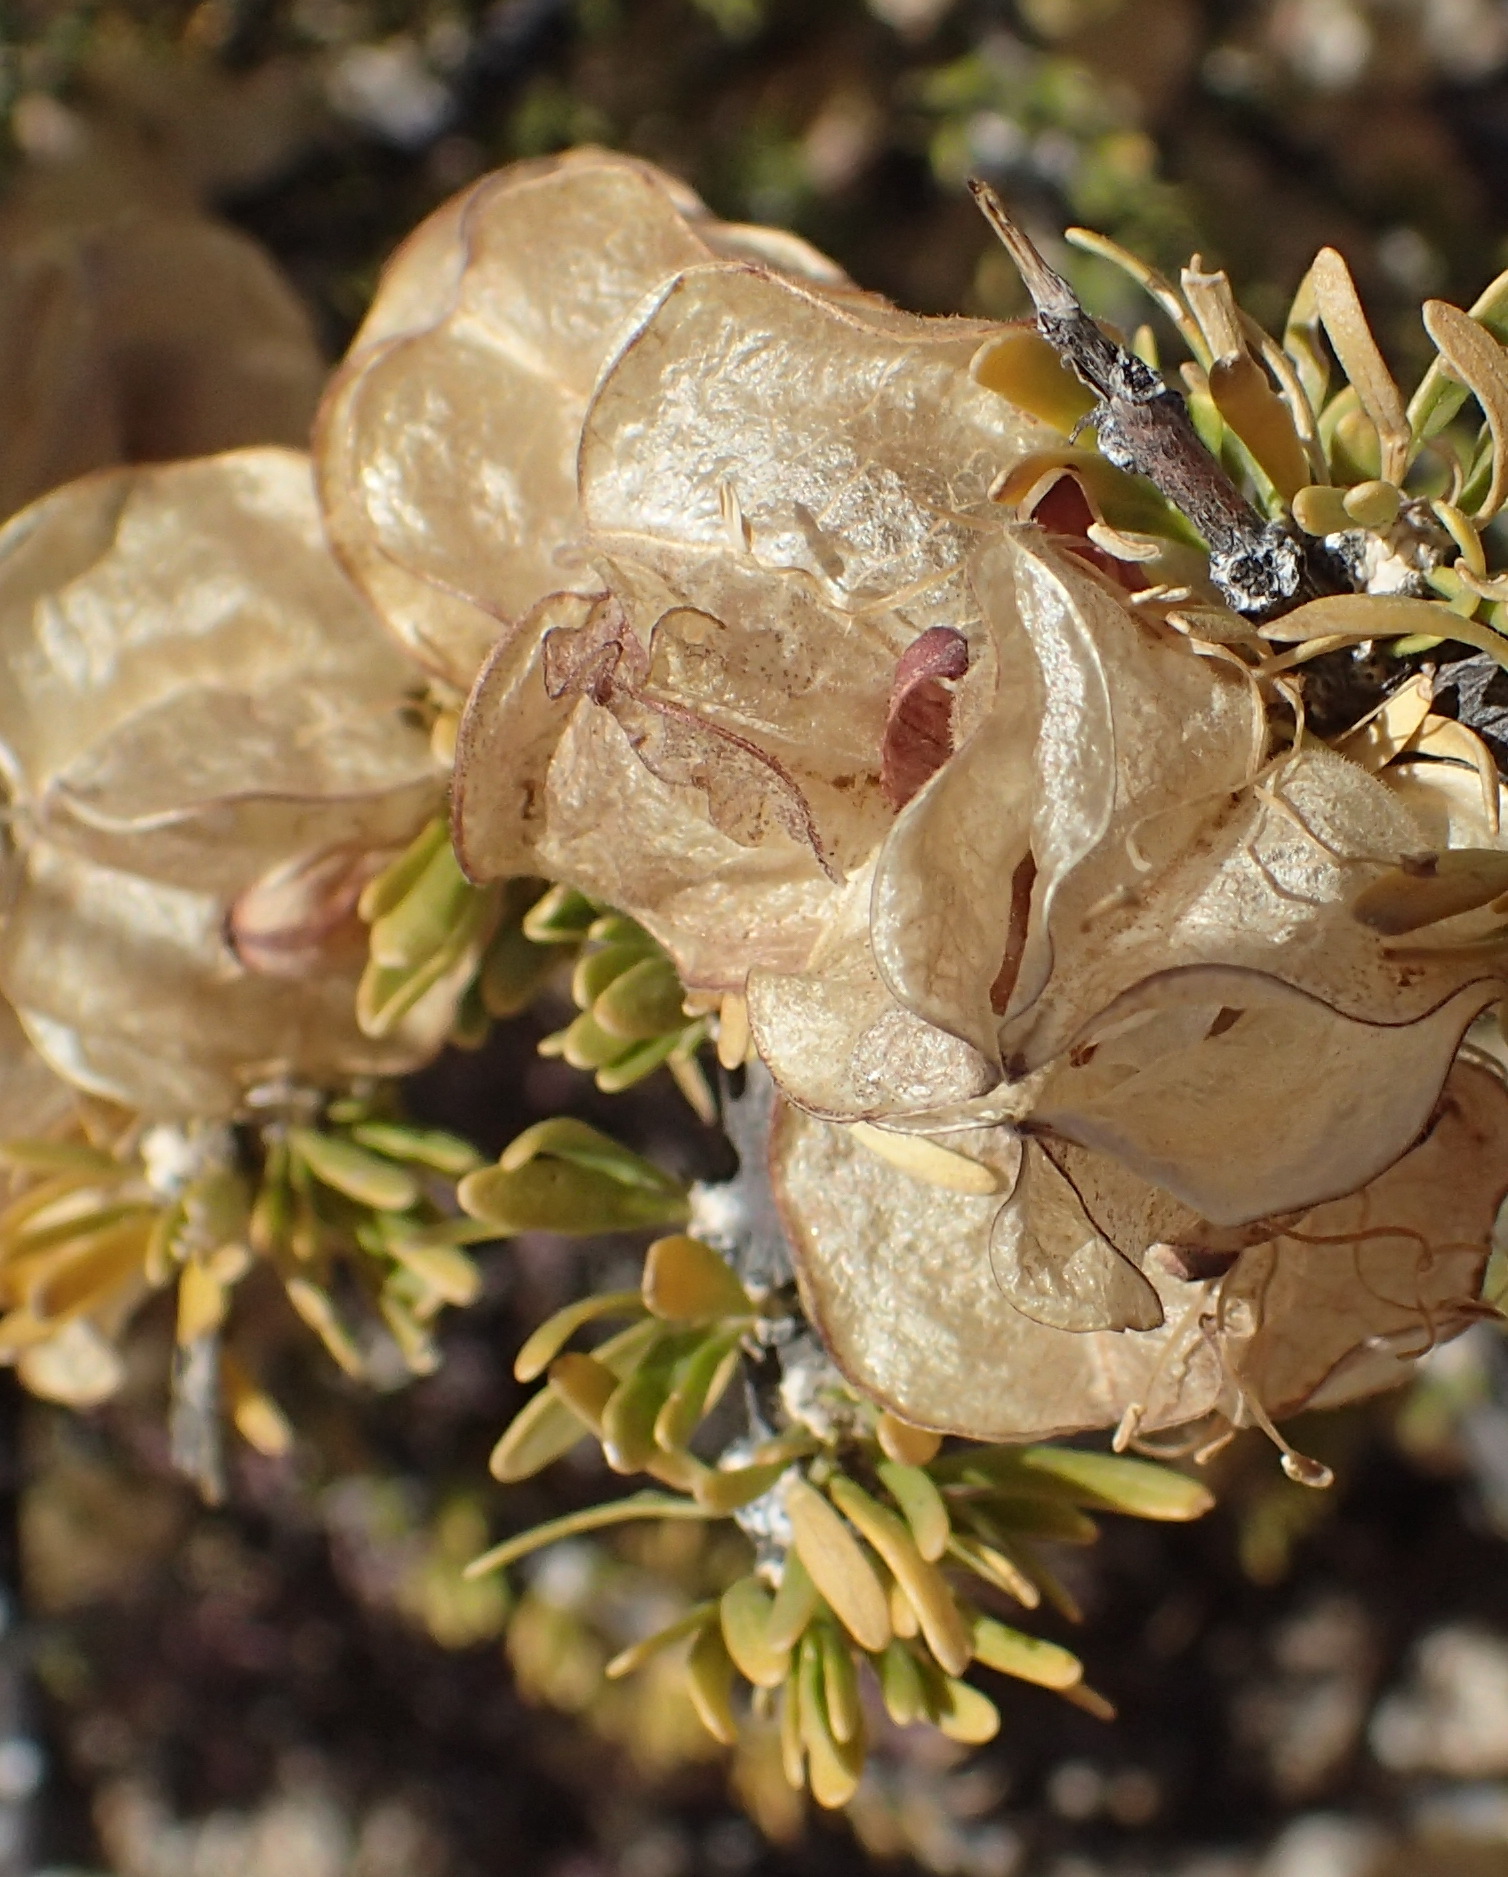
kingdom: Plantae
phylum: Tracheophyta
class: Magnoliopsida
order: Sapindales
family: Meliaceae
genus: Nymania
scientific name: Nymania capensis
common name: Chinese lantern tree
